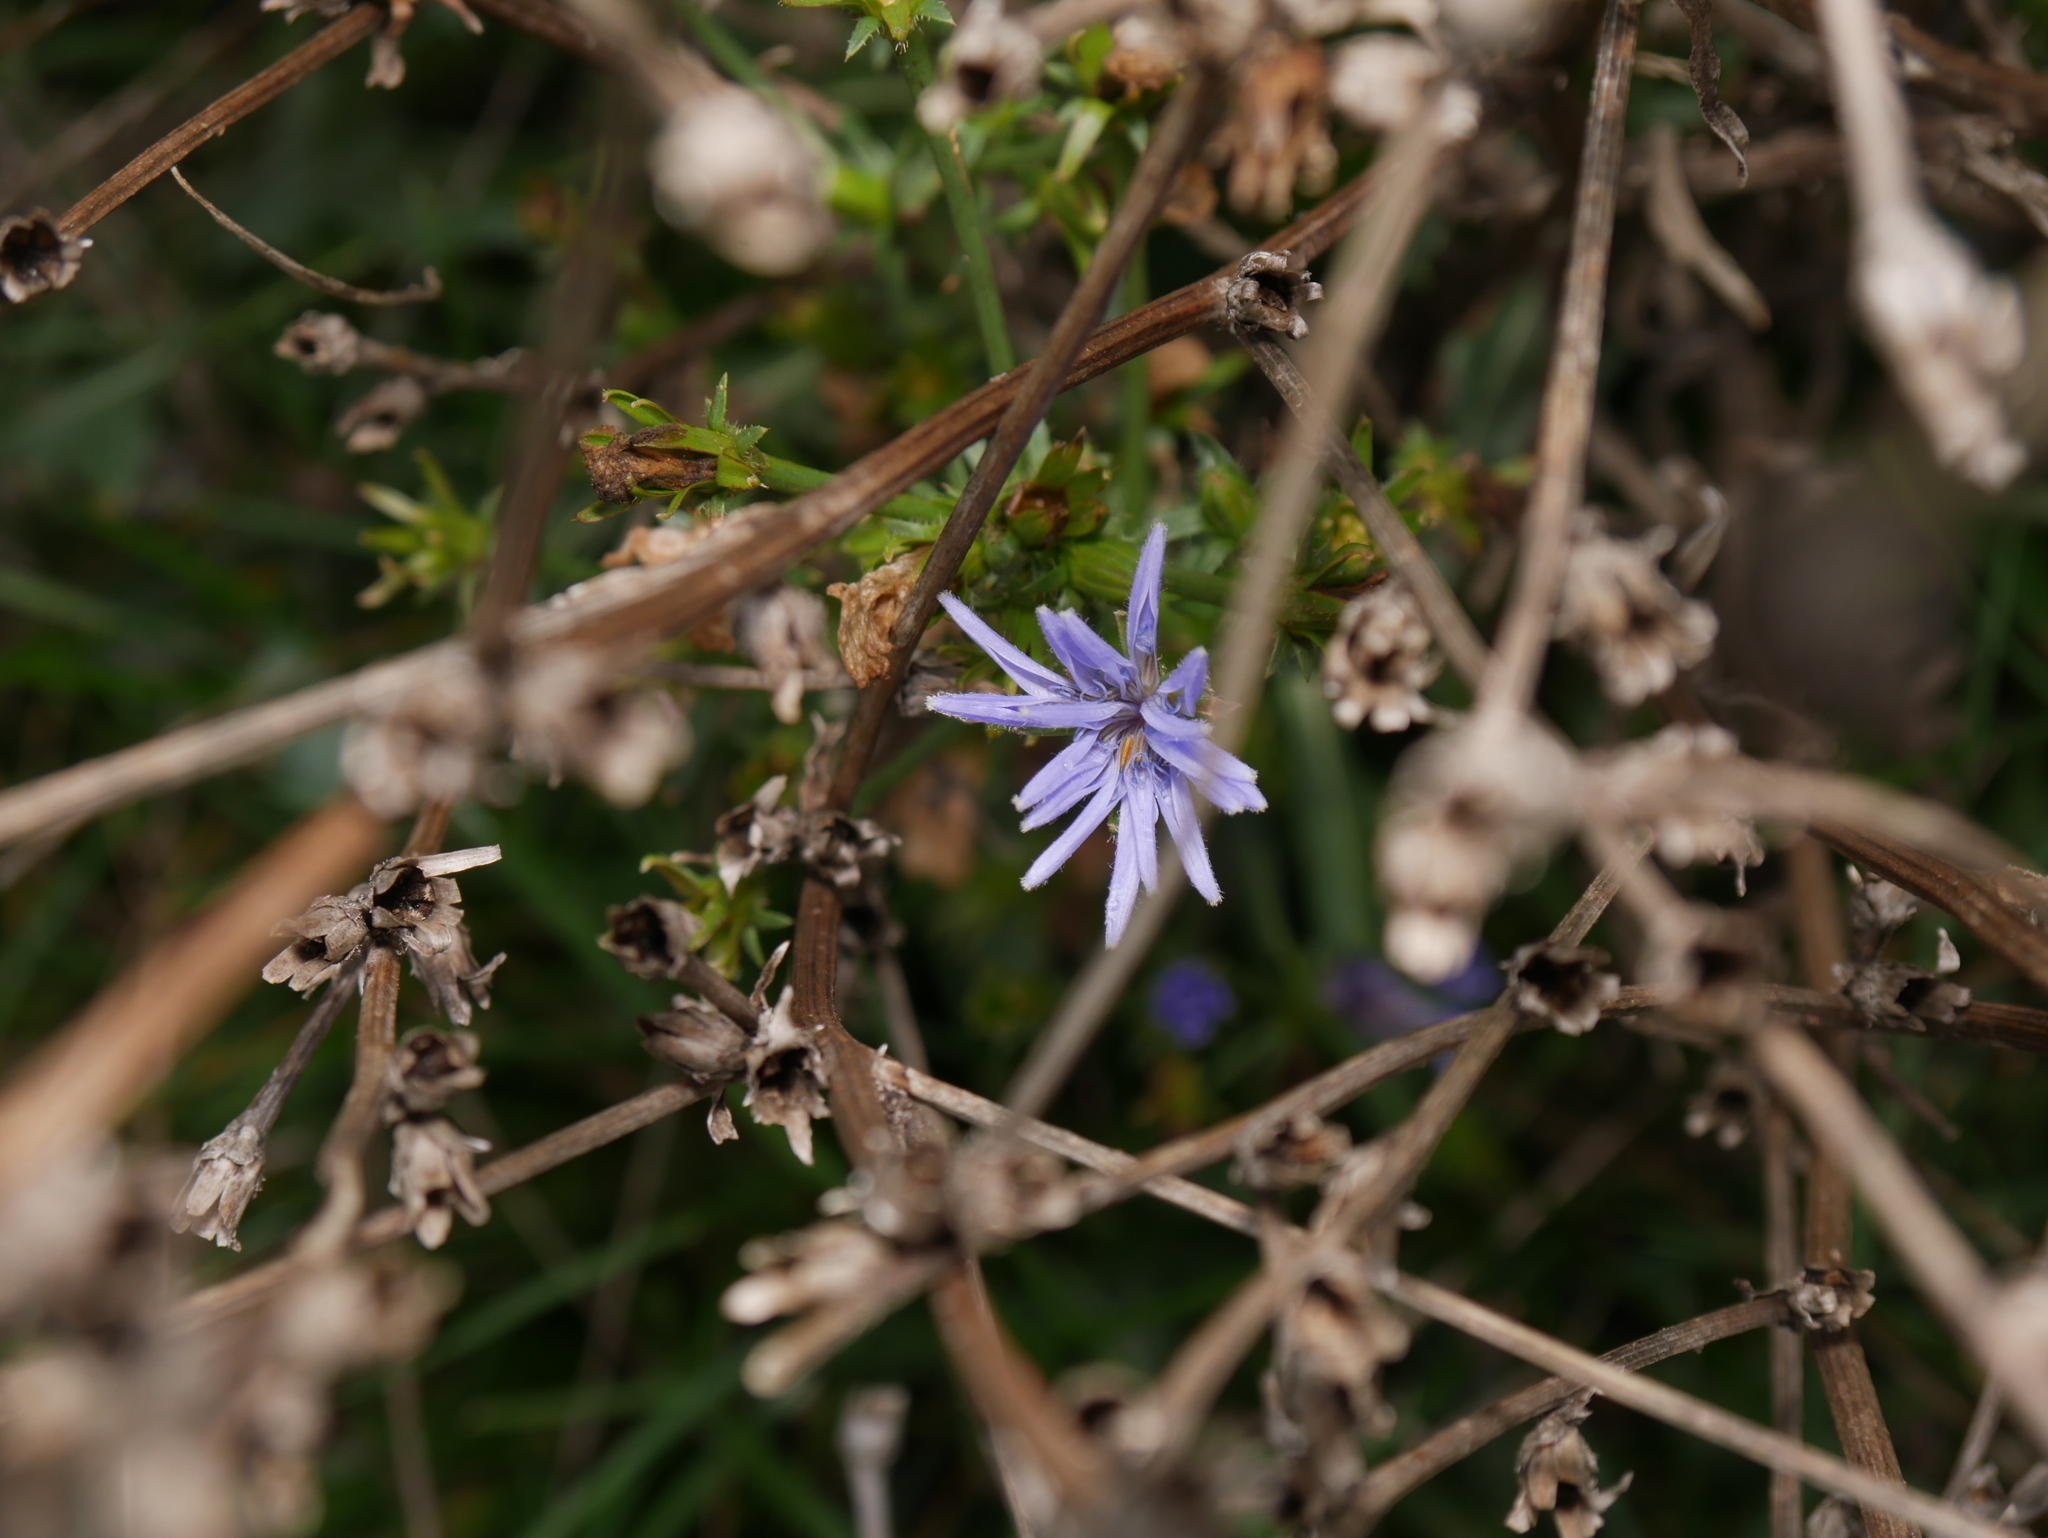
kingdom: Plantae
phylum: Tracheophyta
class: Magnoliopsida
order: Asterales
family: Asteraceae
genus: Cichorium
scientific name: Cichorium intybus
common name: Chicory
